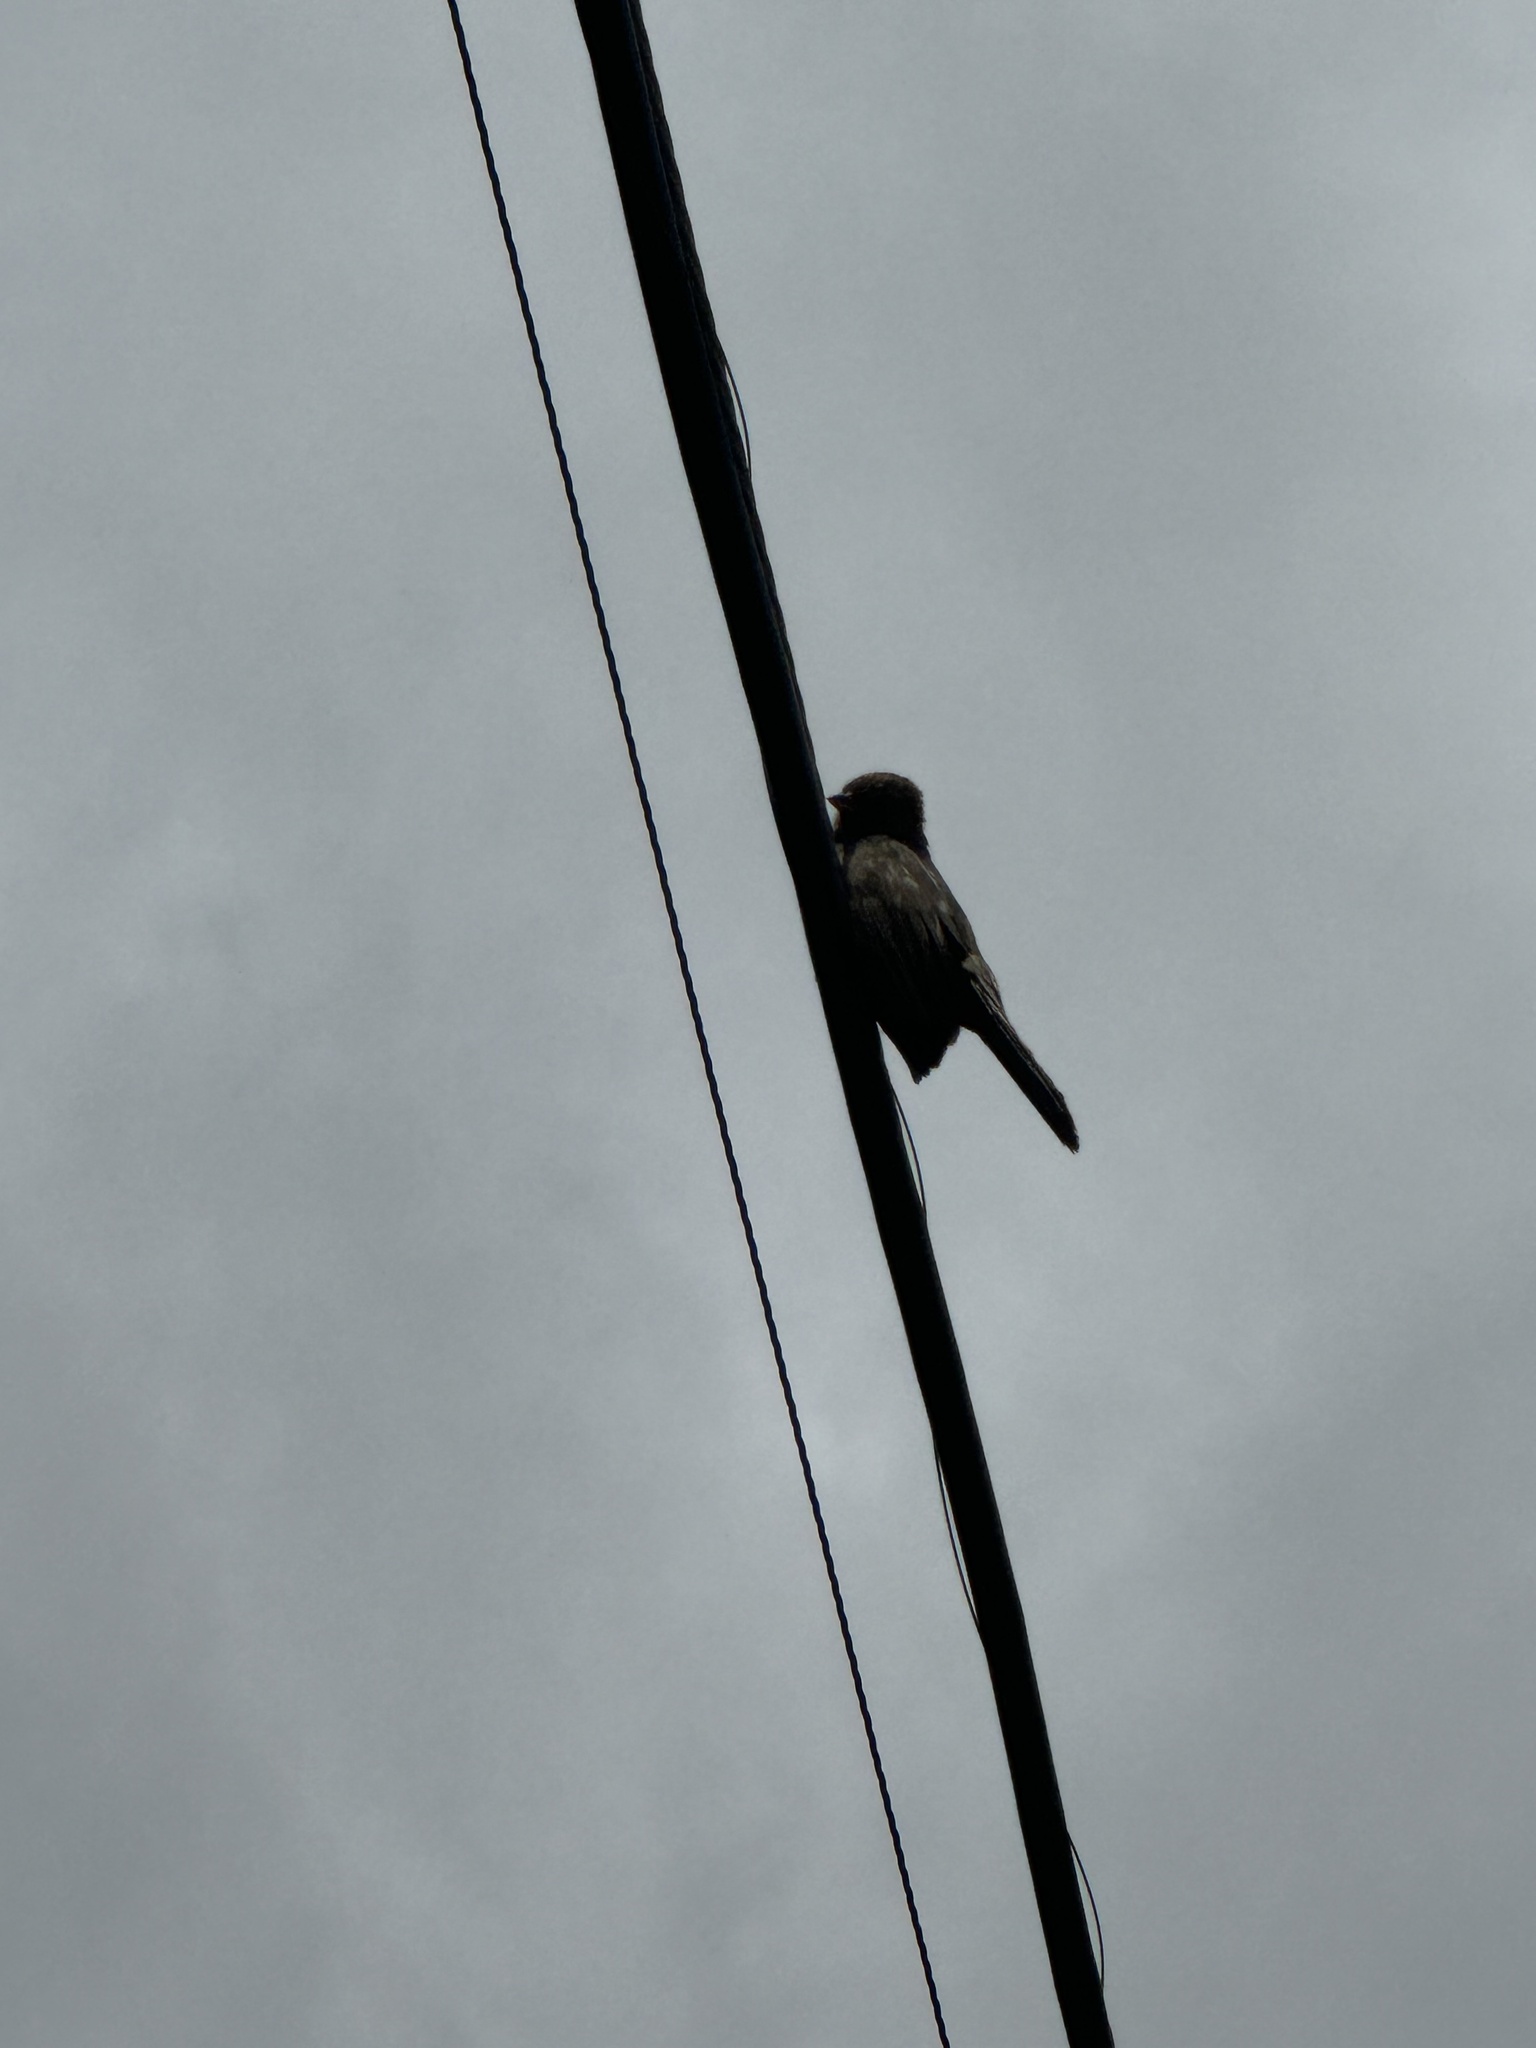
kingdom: Animalia
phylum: Chordata
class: Aves
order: Passeriformes
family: Passerellidae
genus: Melozone
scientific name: Melozone crissalis
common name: California towhee
